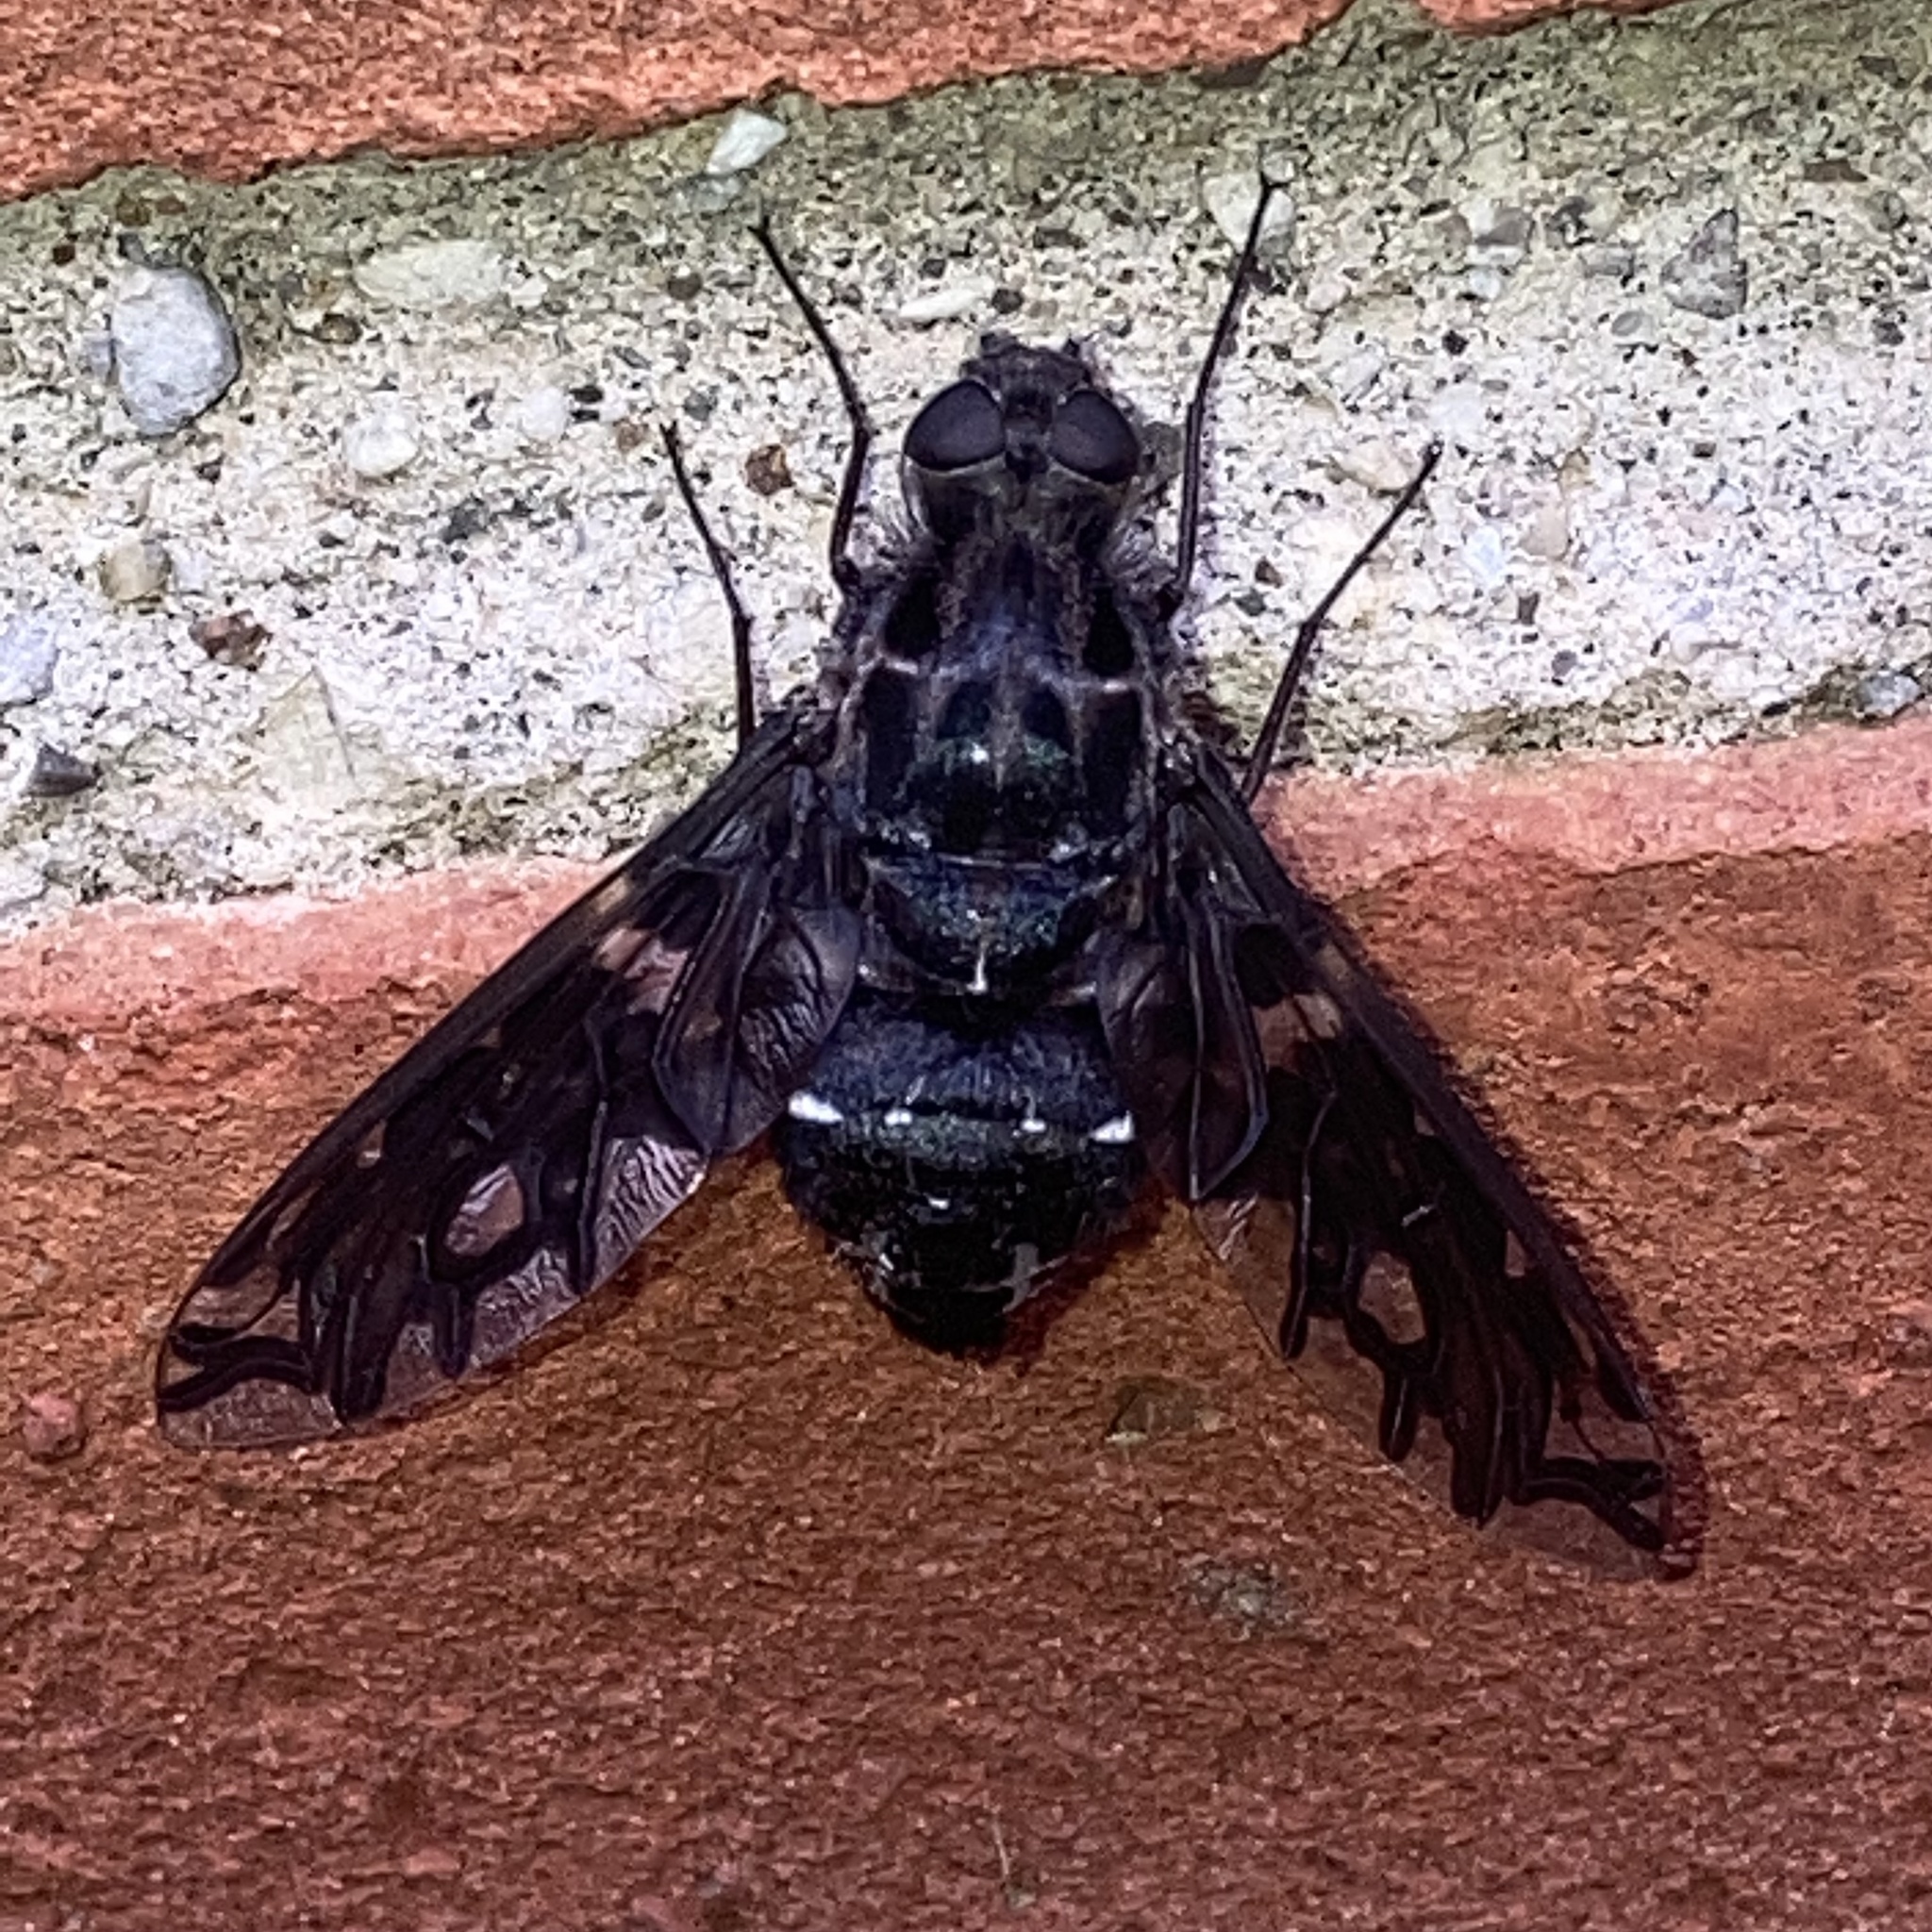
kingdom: Animalia
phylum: Arthropoda
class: Insecta
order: Diptera
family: Bombyliidae
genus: Xenox
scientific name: Xenox tigrinus
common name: Tiger bee fly
